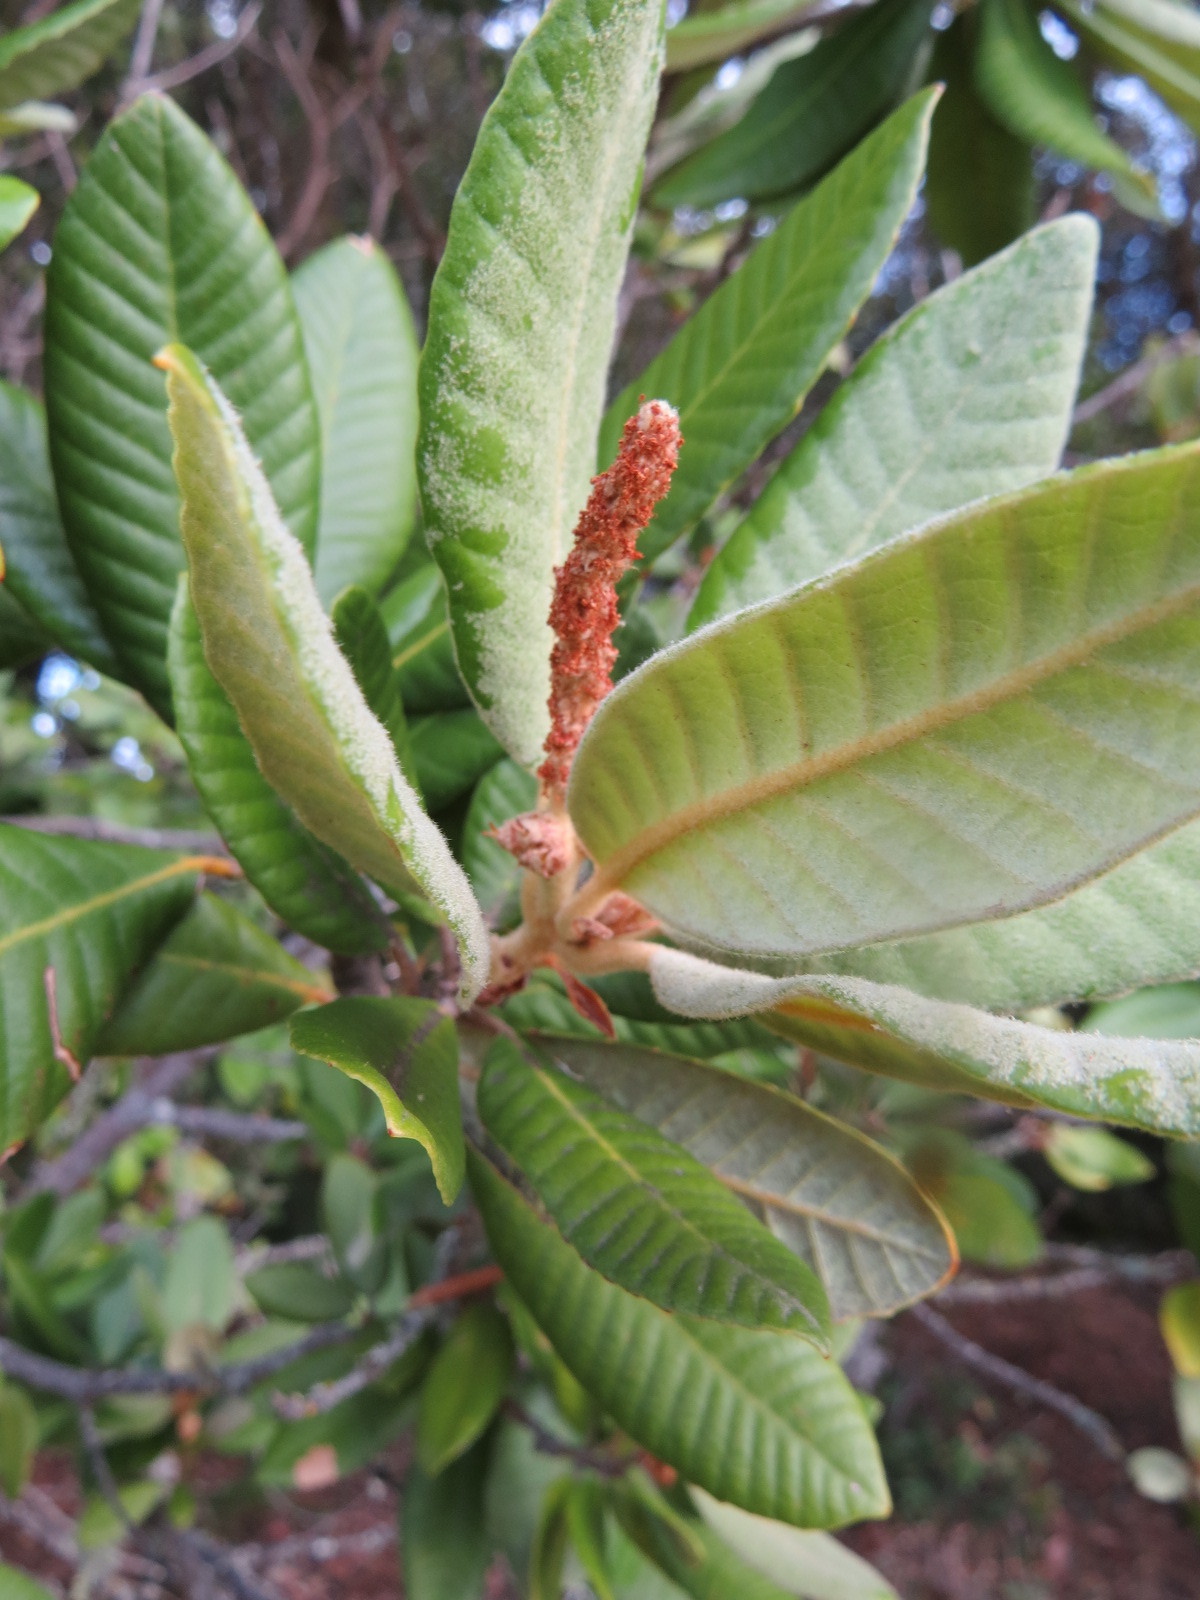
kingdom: Plantae
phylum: Tracheophyta
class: Magnoliopsida
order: Fagales
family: Fagaceae
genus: Notholithocarpus
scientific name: Notholithocarpus densiflorus
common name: Tan bark oak
